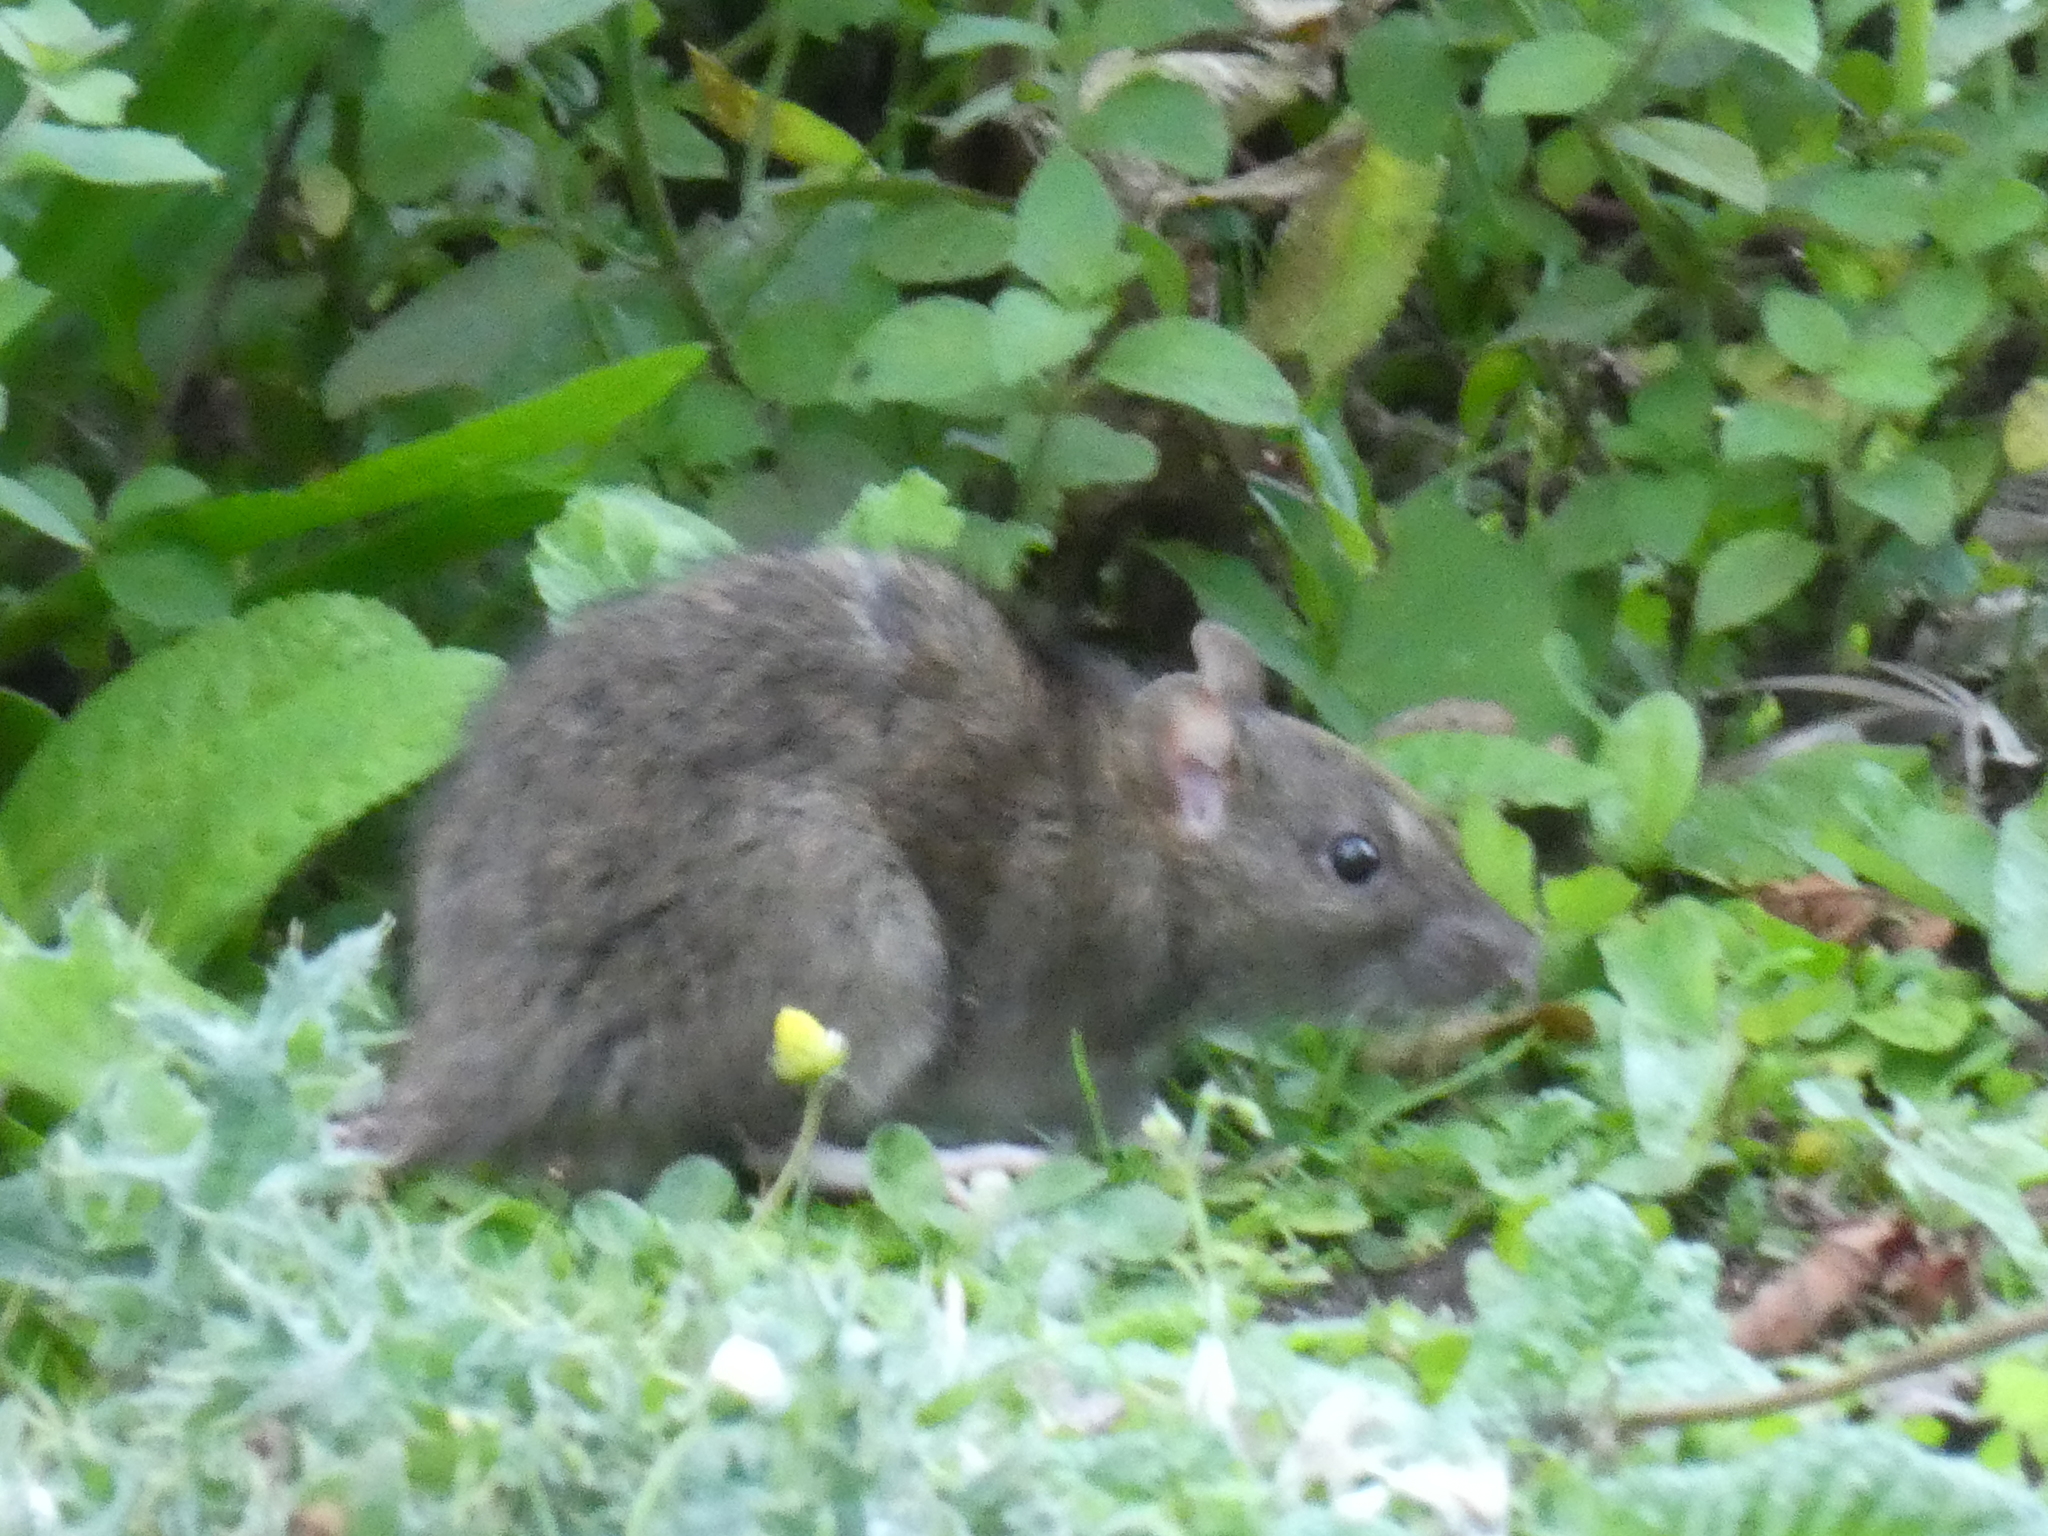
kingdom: Animalia
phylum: Chordata
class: Mammalia
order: Rodentia
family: Muridae
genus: Rattus
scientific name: Rattus norvegicus
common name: Brown rat
